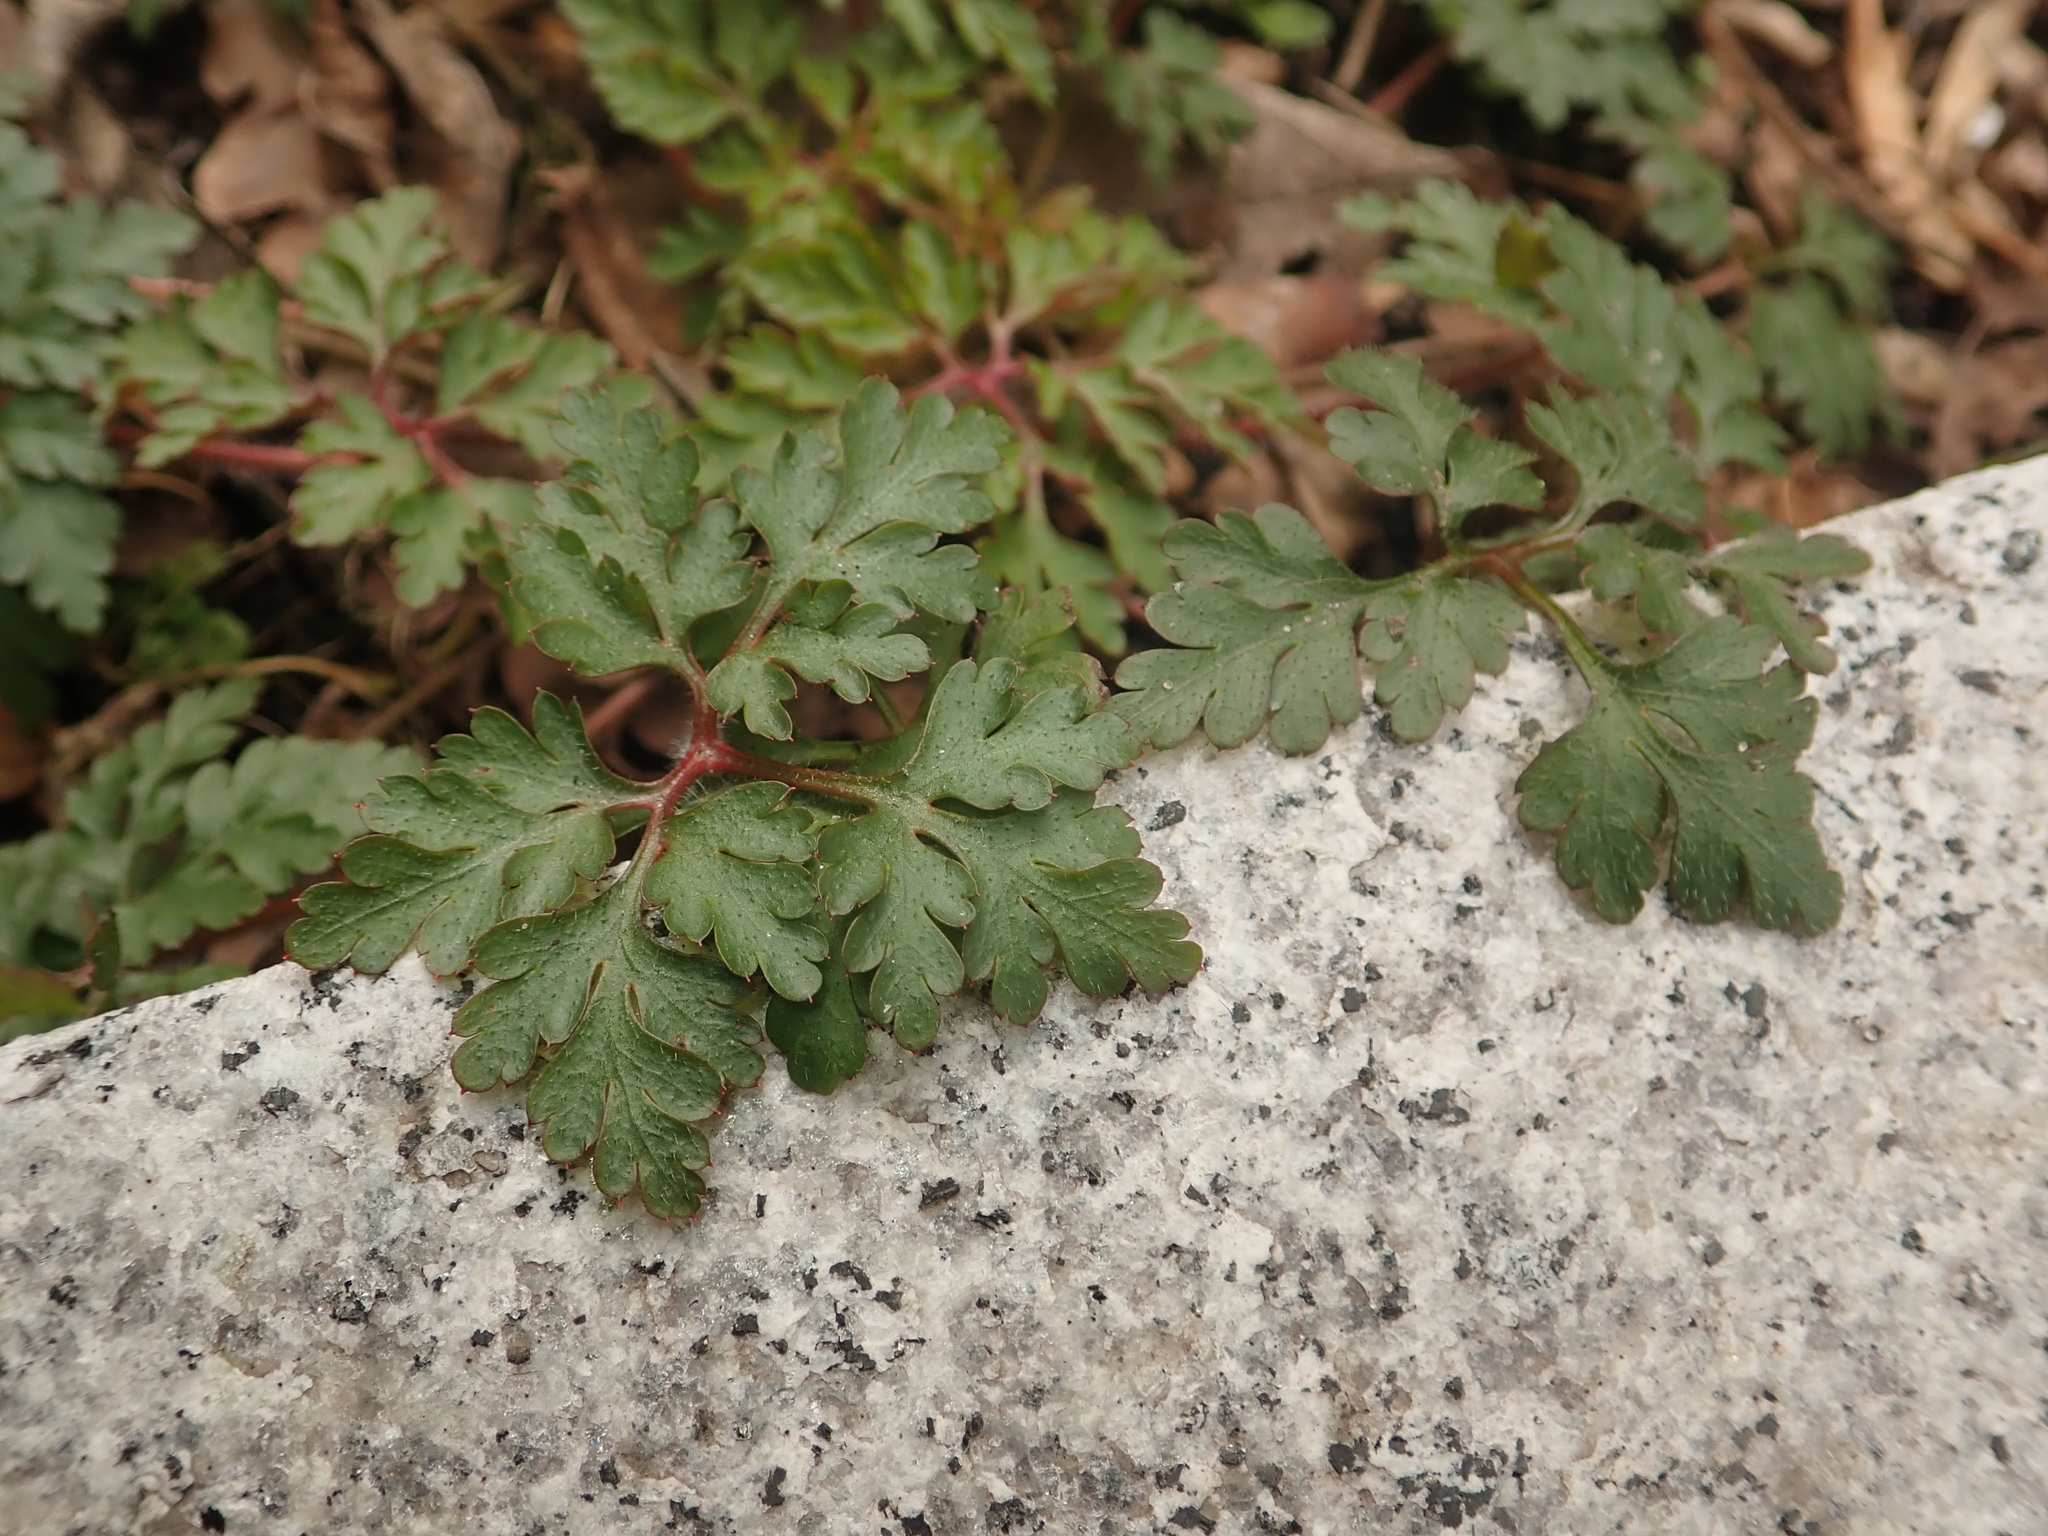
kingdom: Plantae
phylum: Tracheophyta
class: Magnoliopsida
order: Geraniales
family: Geraniaceae
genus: Geranium
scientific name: Geranium robertianum
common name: Herb-robert
